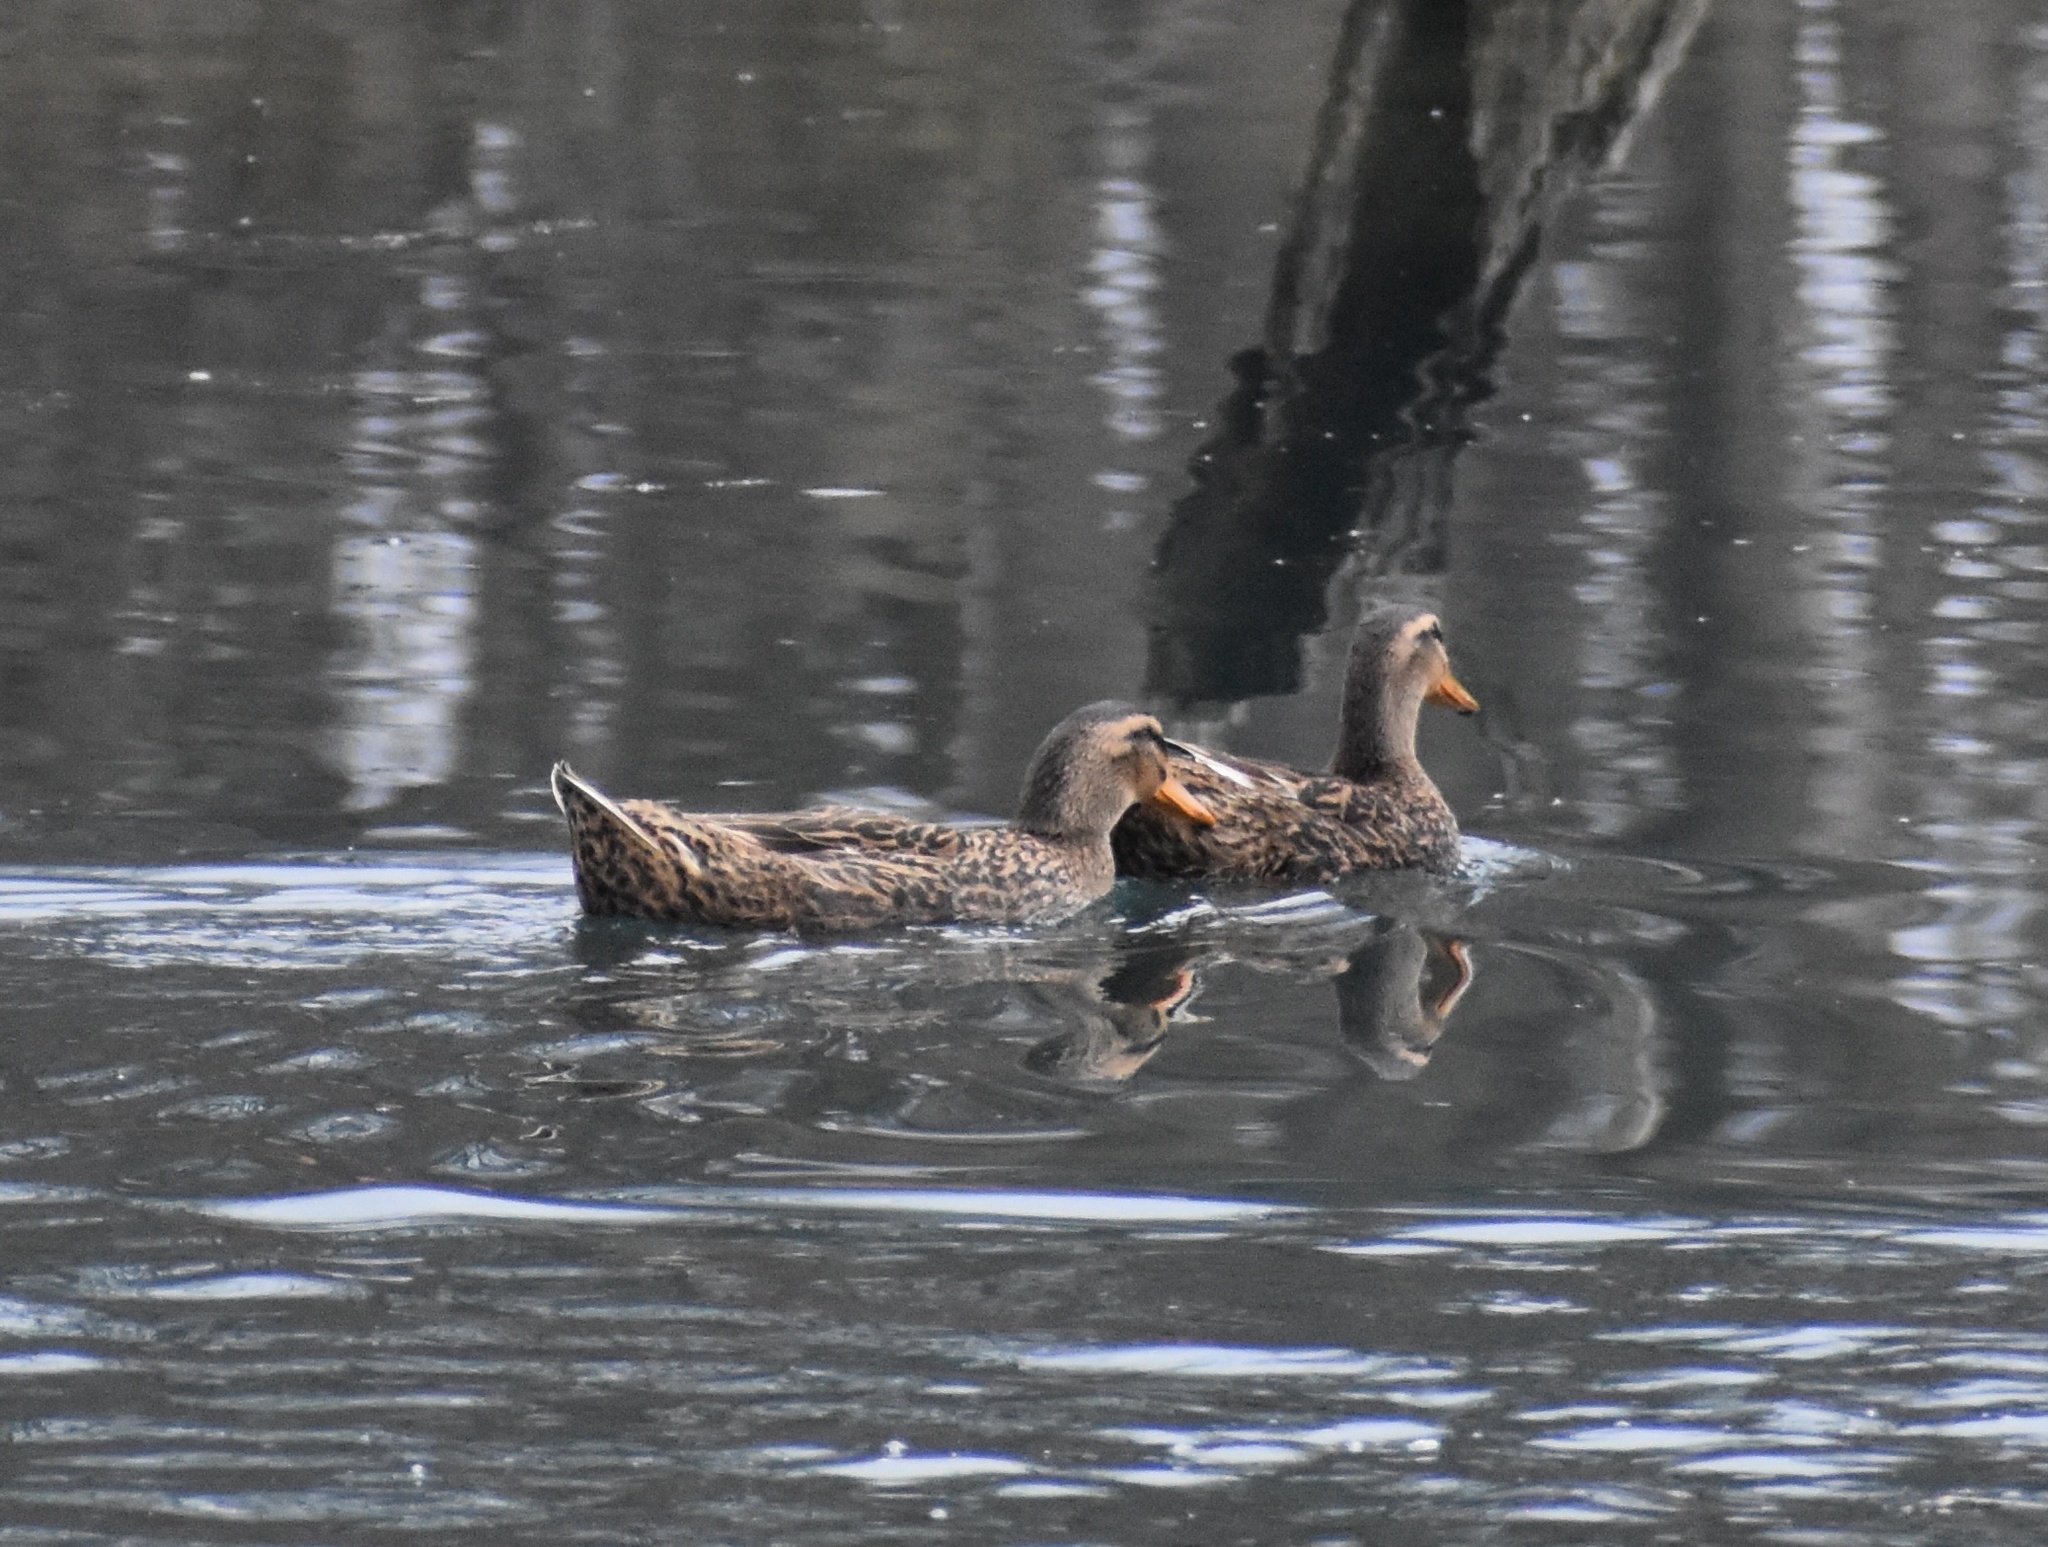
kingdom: Animalia
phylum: Chordata
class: Aves
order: Anseriformes
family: Anatidae
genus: Anas
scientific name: Anas platyrhynchos
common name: Mallard
